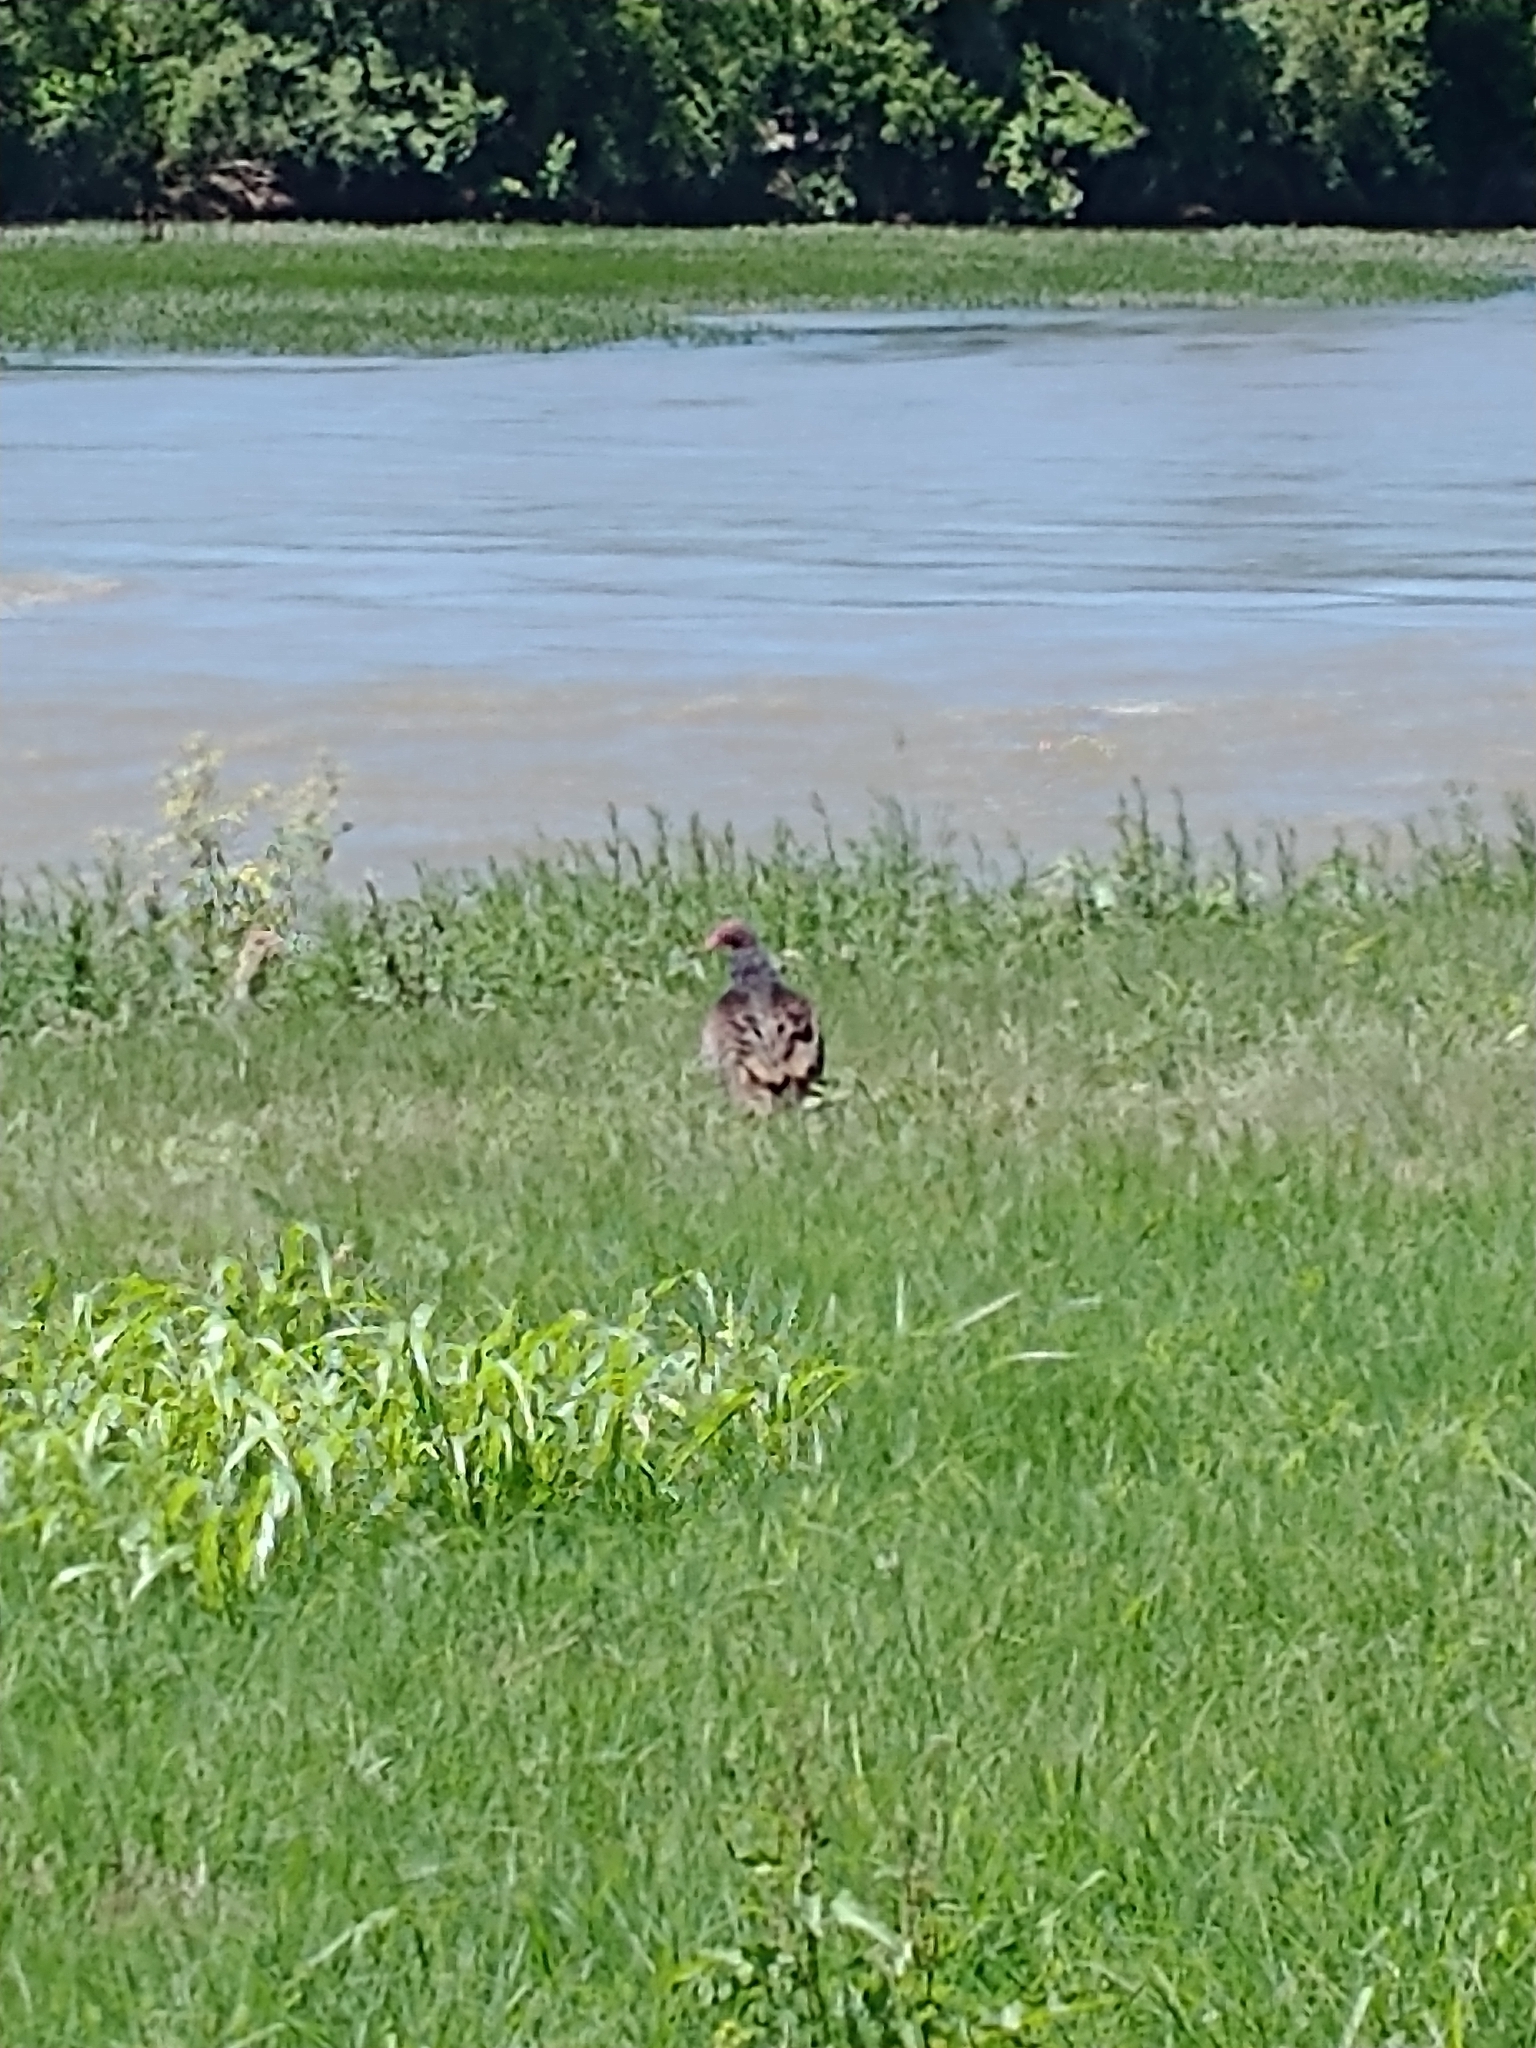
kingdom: Animalia
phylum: Chordata
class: Aves
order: Accipitriformes
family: Cathartidae
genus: Cathartes
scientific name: Cathartes aura
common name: Turkey vulture
